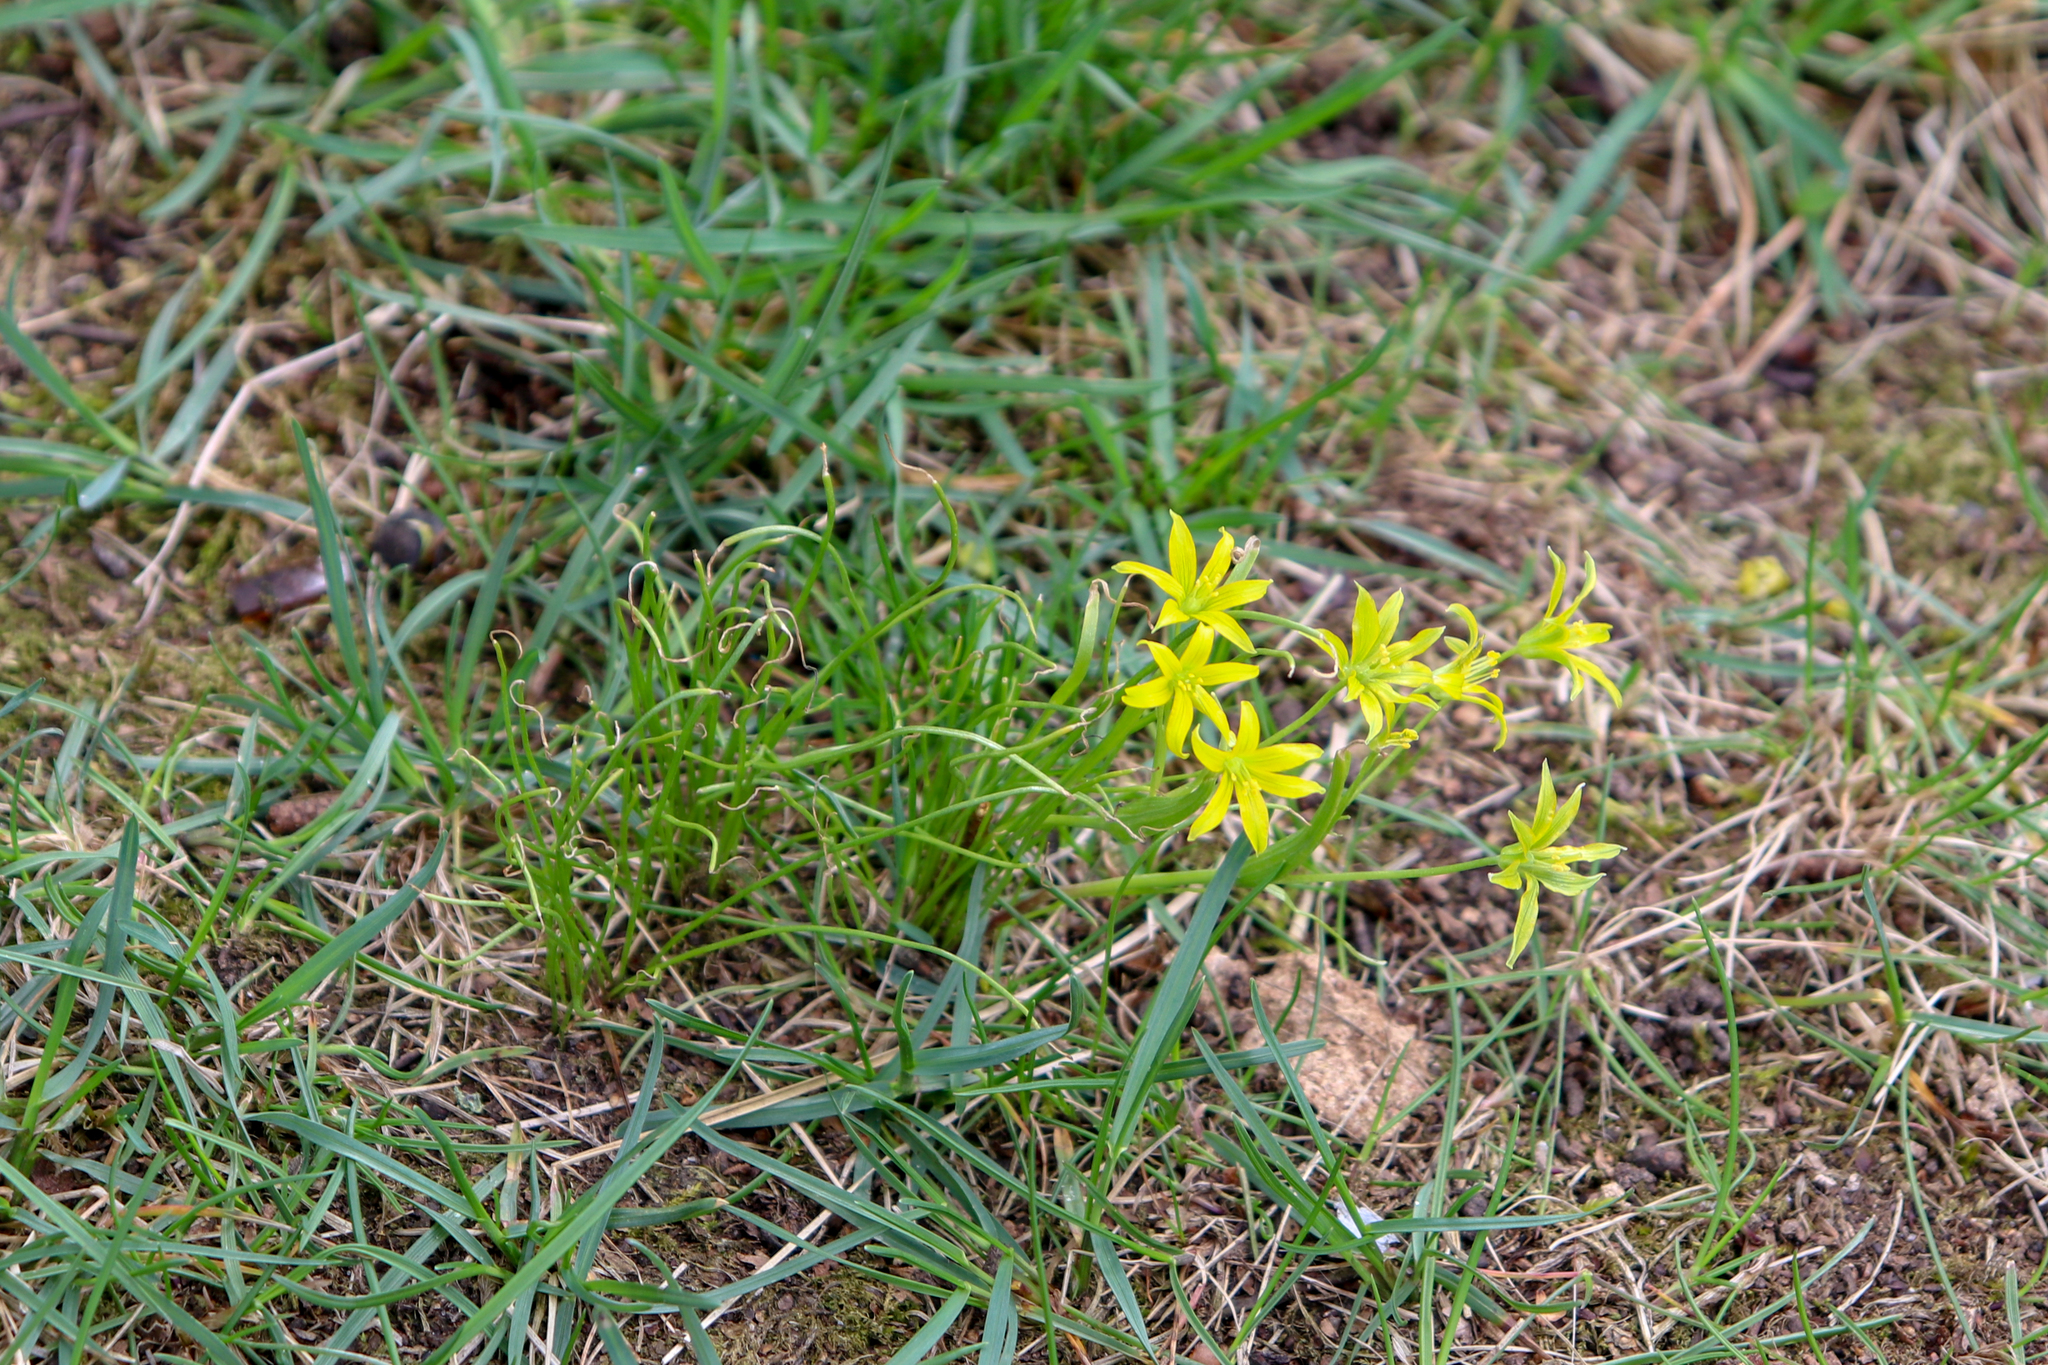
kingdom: Plantae
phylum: Tracheophyta
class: Liliopsida
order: Liliales
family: Liliaceae
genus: Gagea
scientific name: Gagea minima
